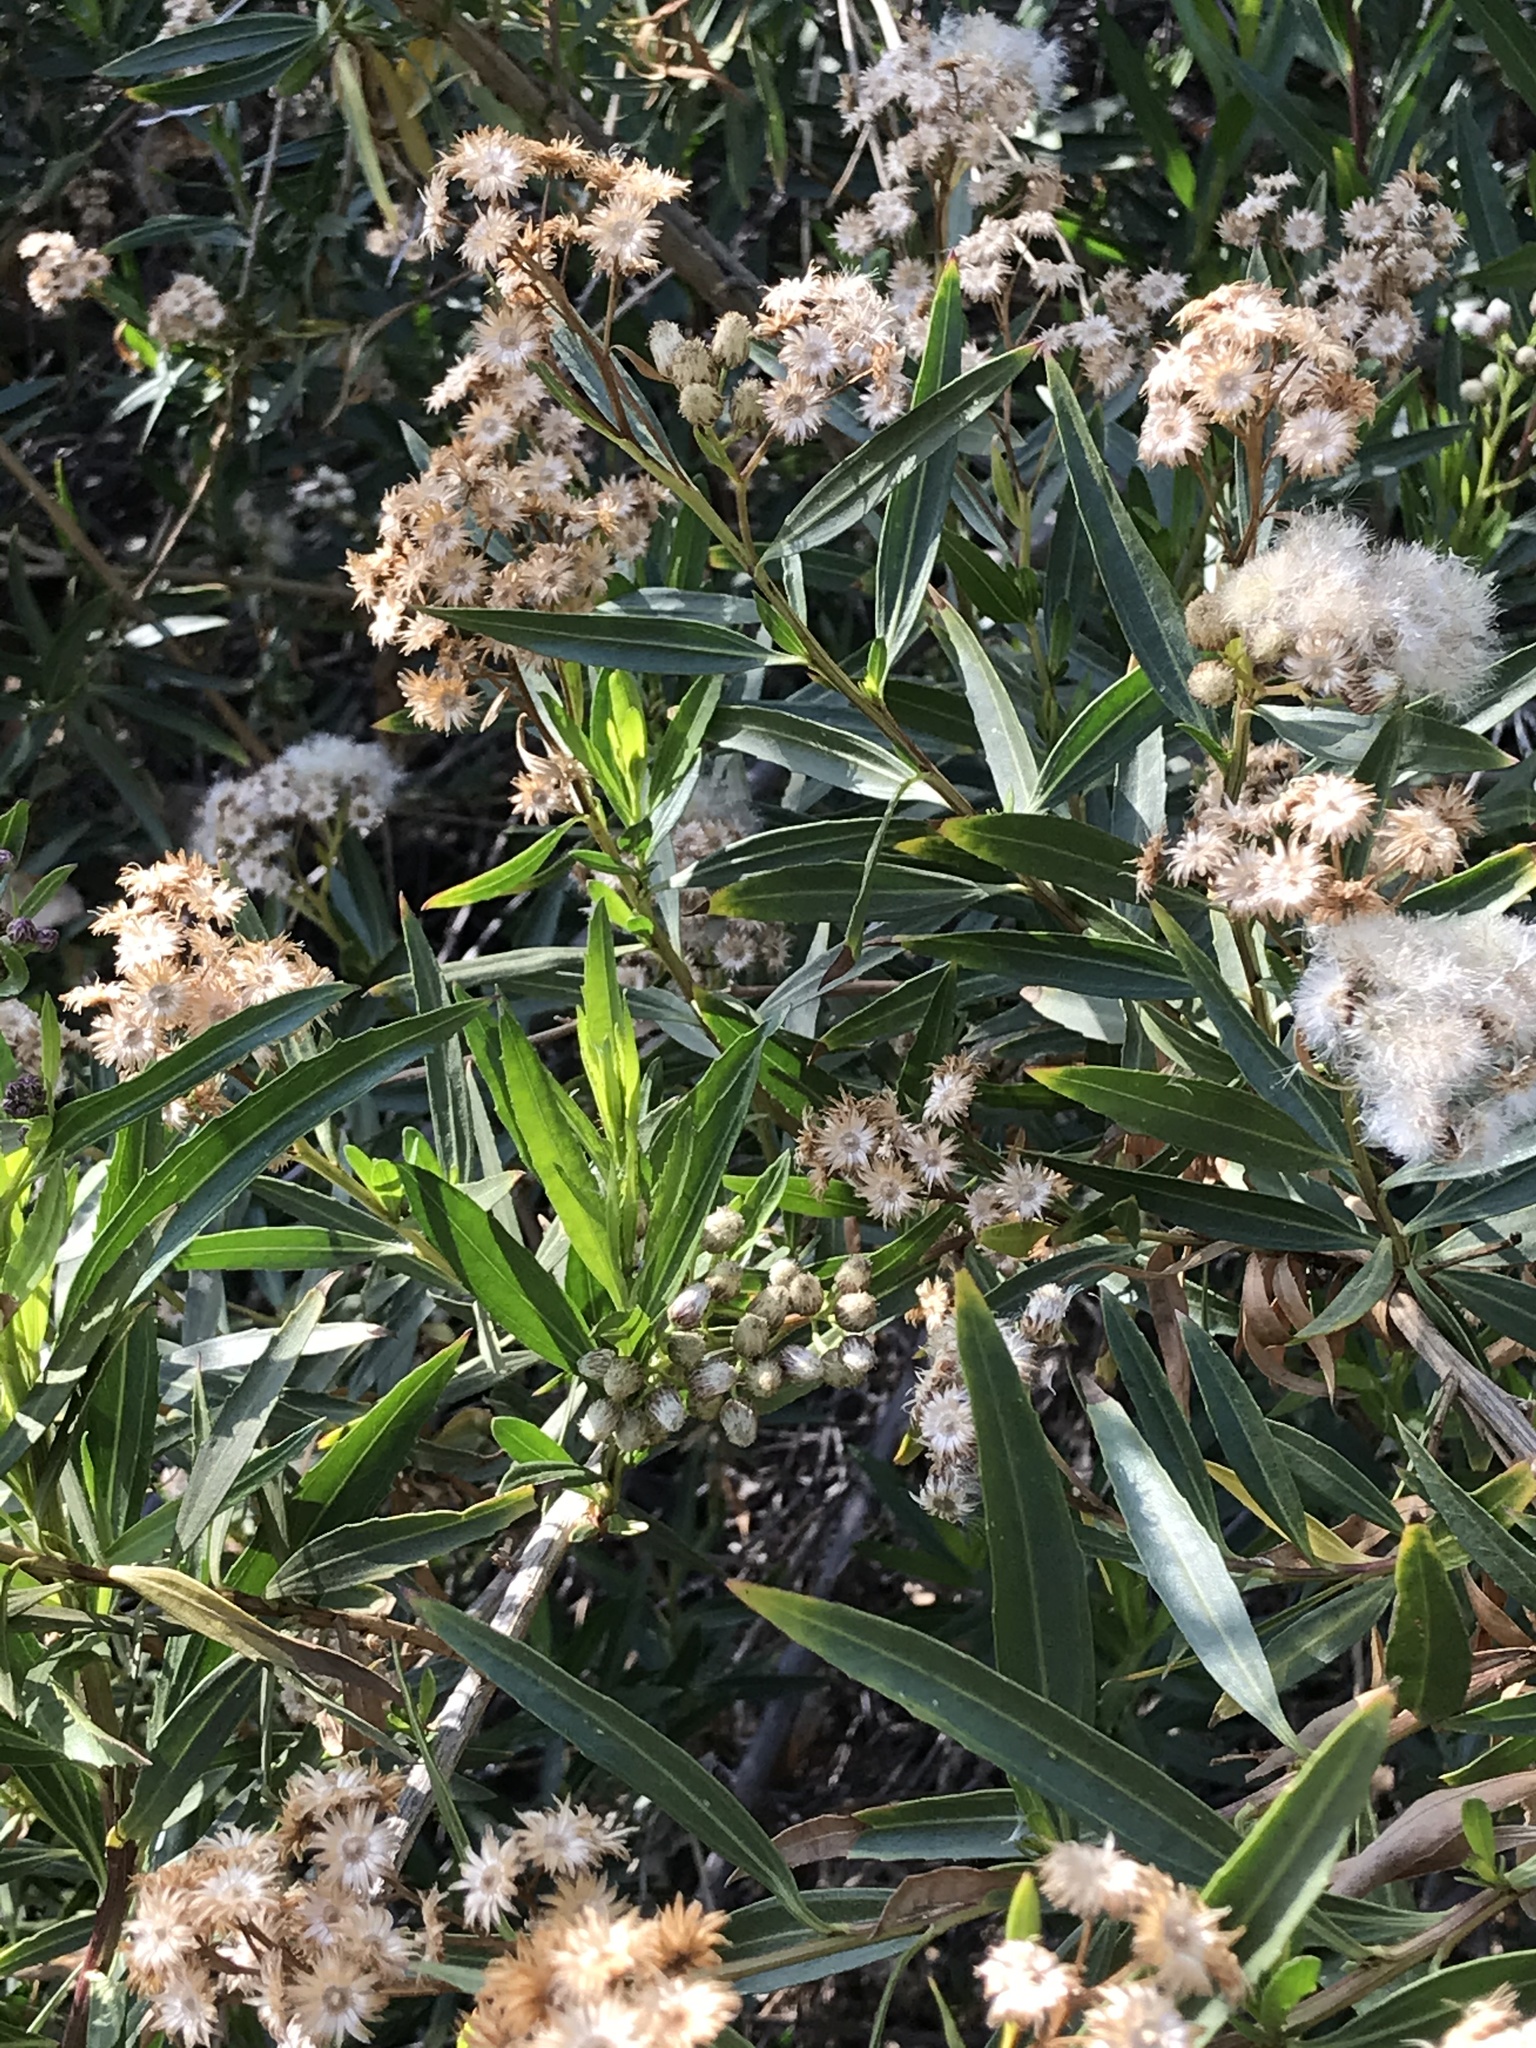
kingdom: Plantae
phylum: Tracheophyta
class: Magnoliopsida
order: Asterales
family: Asteraceae
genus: Baccharis
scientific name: Baccharis salicifolia
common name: Sticky baccharis
